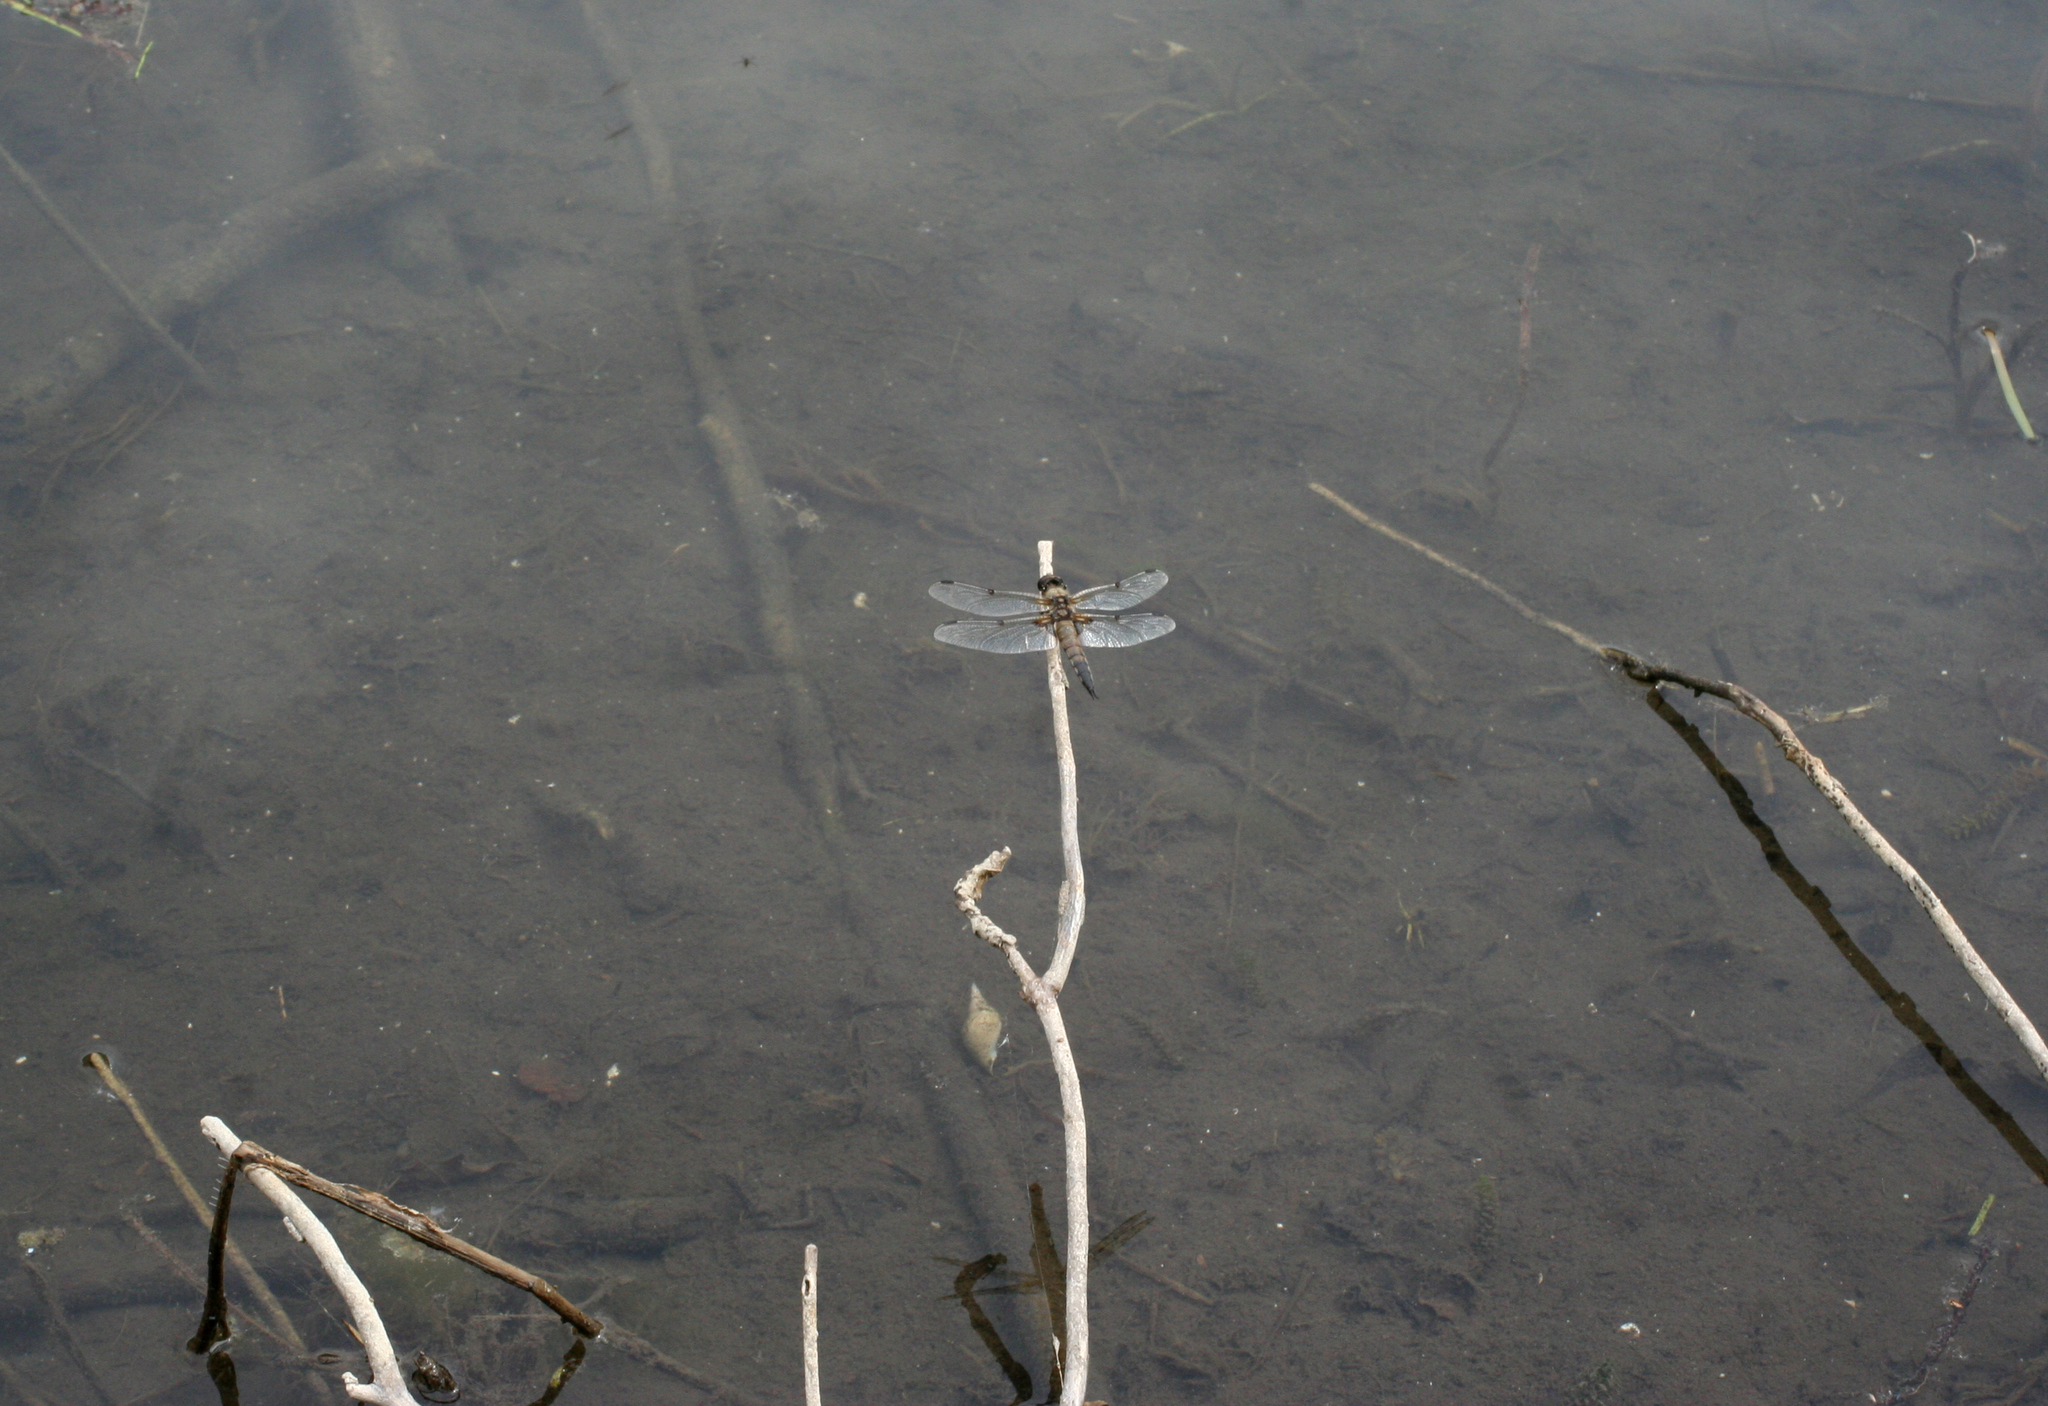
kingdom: Animalia
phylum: Arthropoda
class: Insecta
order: Odonata
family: Libellulidae
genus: Libellula
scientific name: Libellula quadrimaculata
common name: Four-spotted chaser
